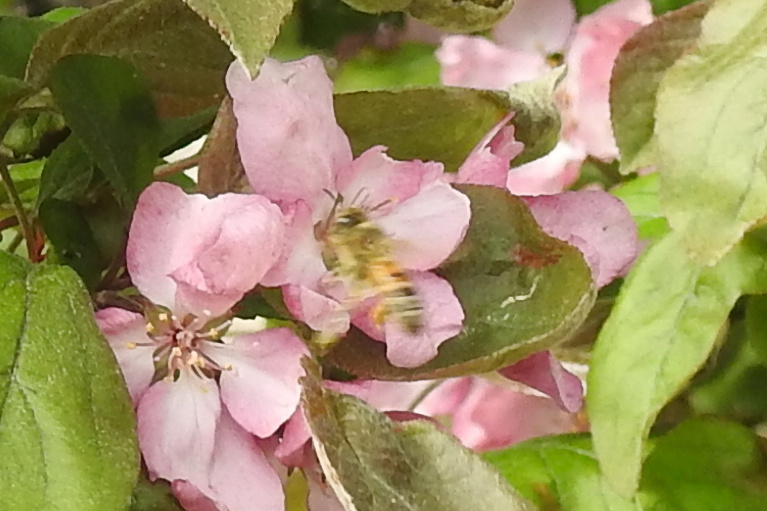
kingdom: Animalia
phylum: Arthropoda
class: Insecta
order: Hymenoptera
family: Apidae
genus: Apis
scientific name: Apis mellifera
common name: Honey bee
